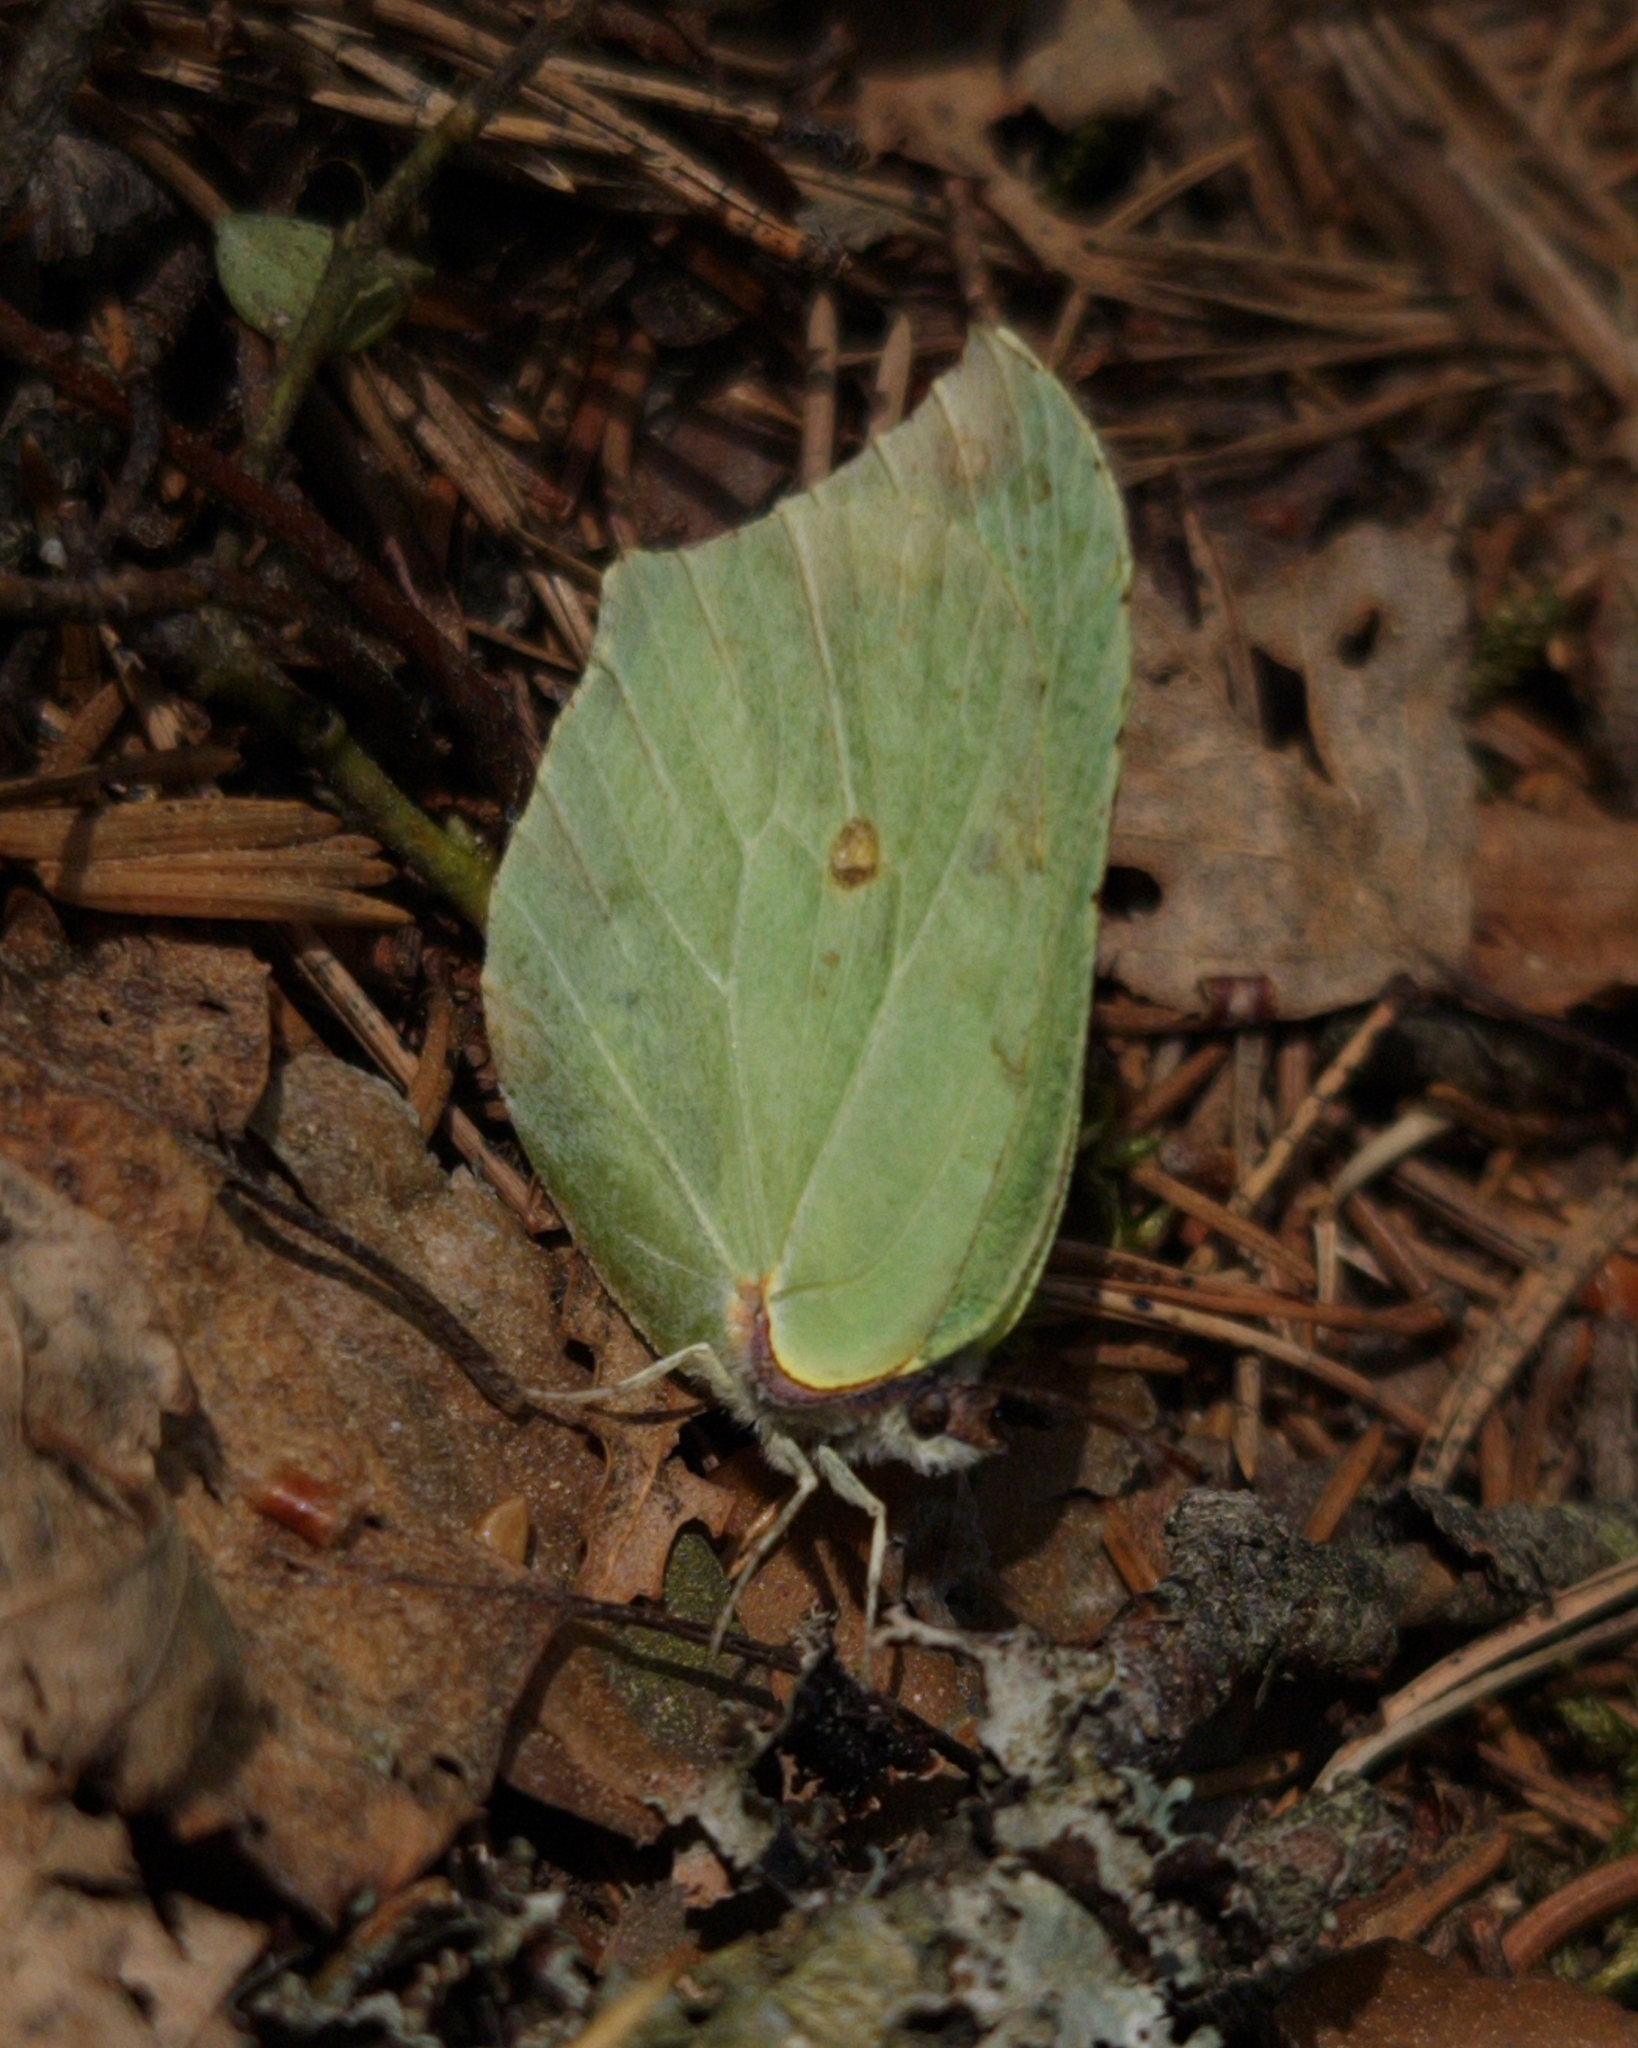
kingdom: Animalia
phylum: Arthropoda
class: Insecta
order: Lepidoptera
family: Pieridae
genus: Gonepteryx
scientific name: Gonepteryx rhamni
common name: Brimstone
